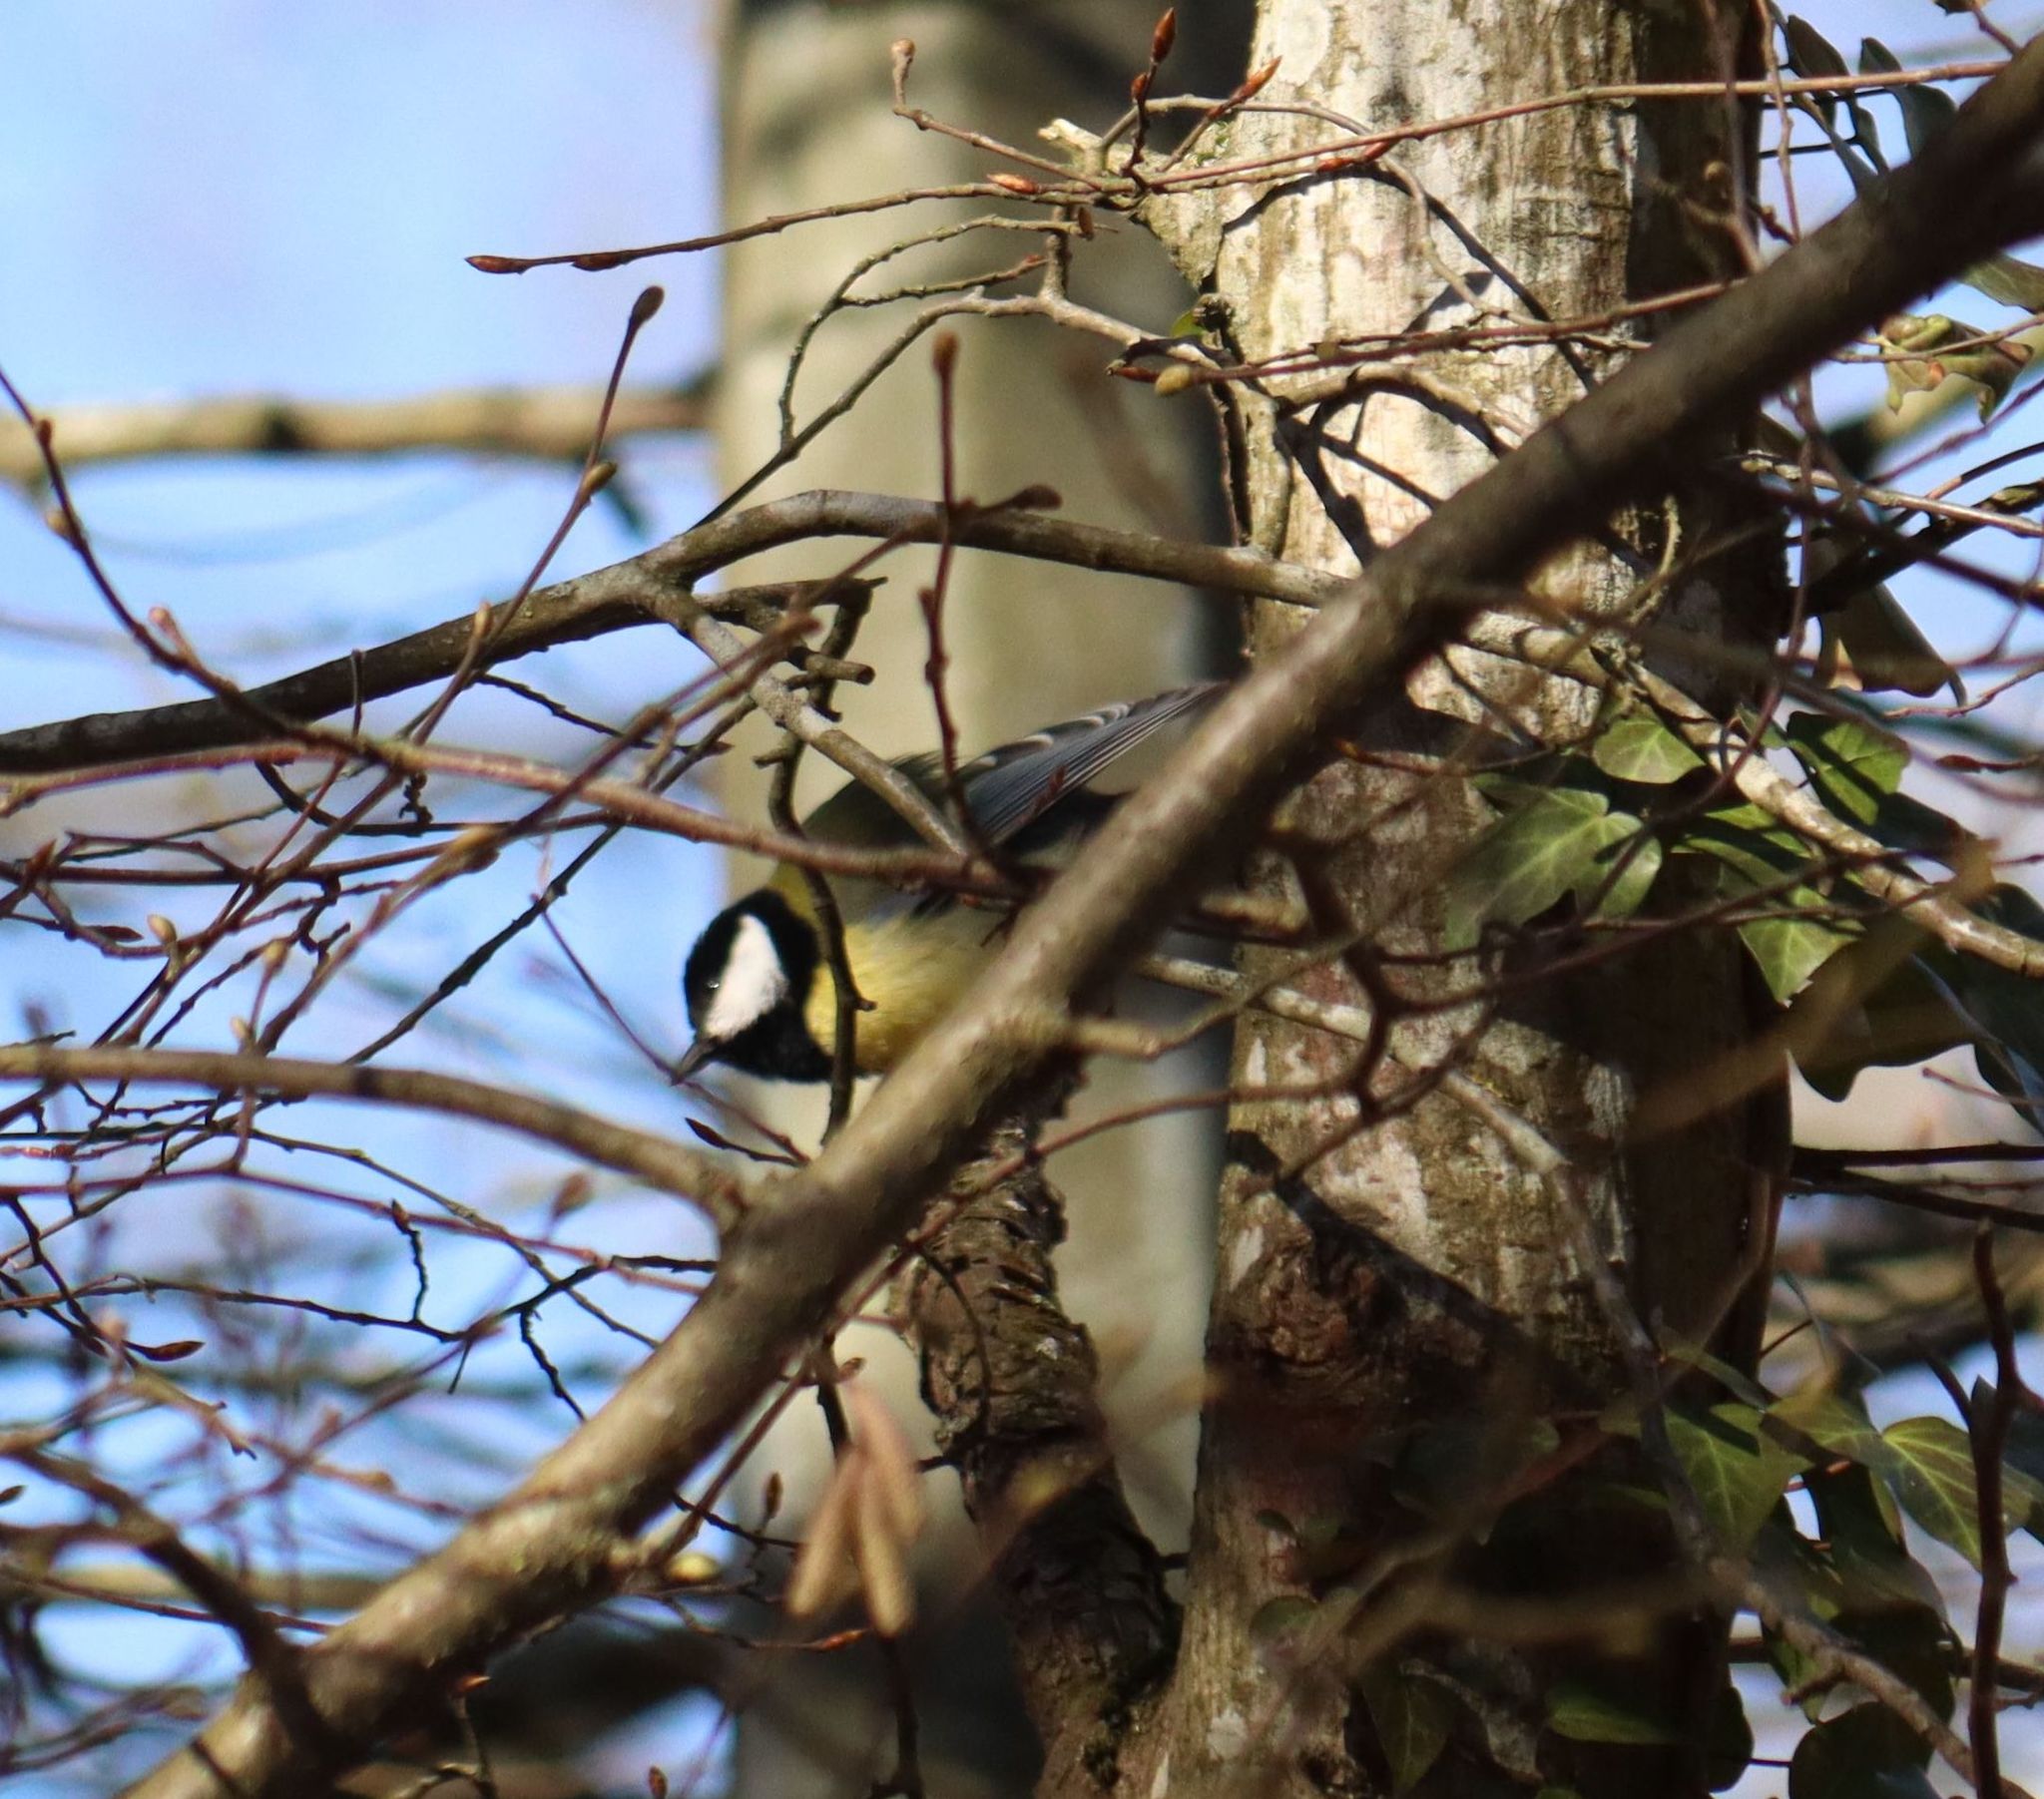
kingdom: Animalia
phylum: Chordata
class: Aves
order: Passeriformes
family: Paridae
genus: Parus
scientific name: Parus major
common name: Great tit
